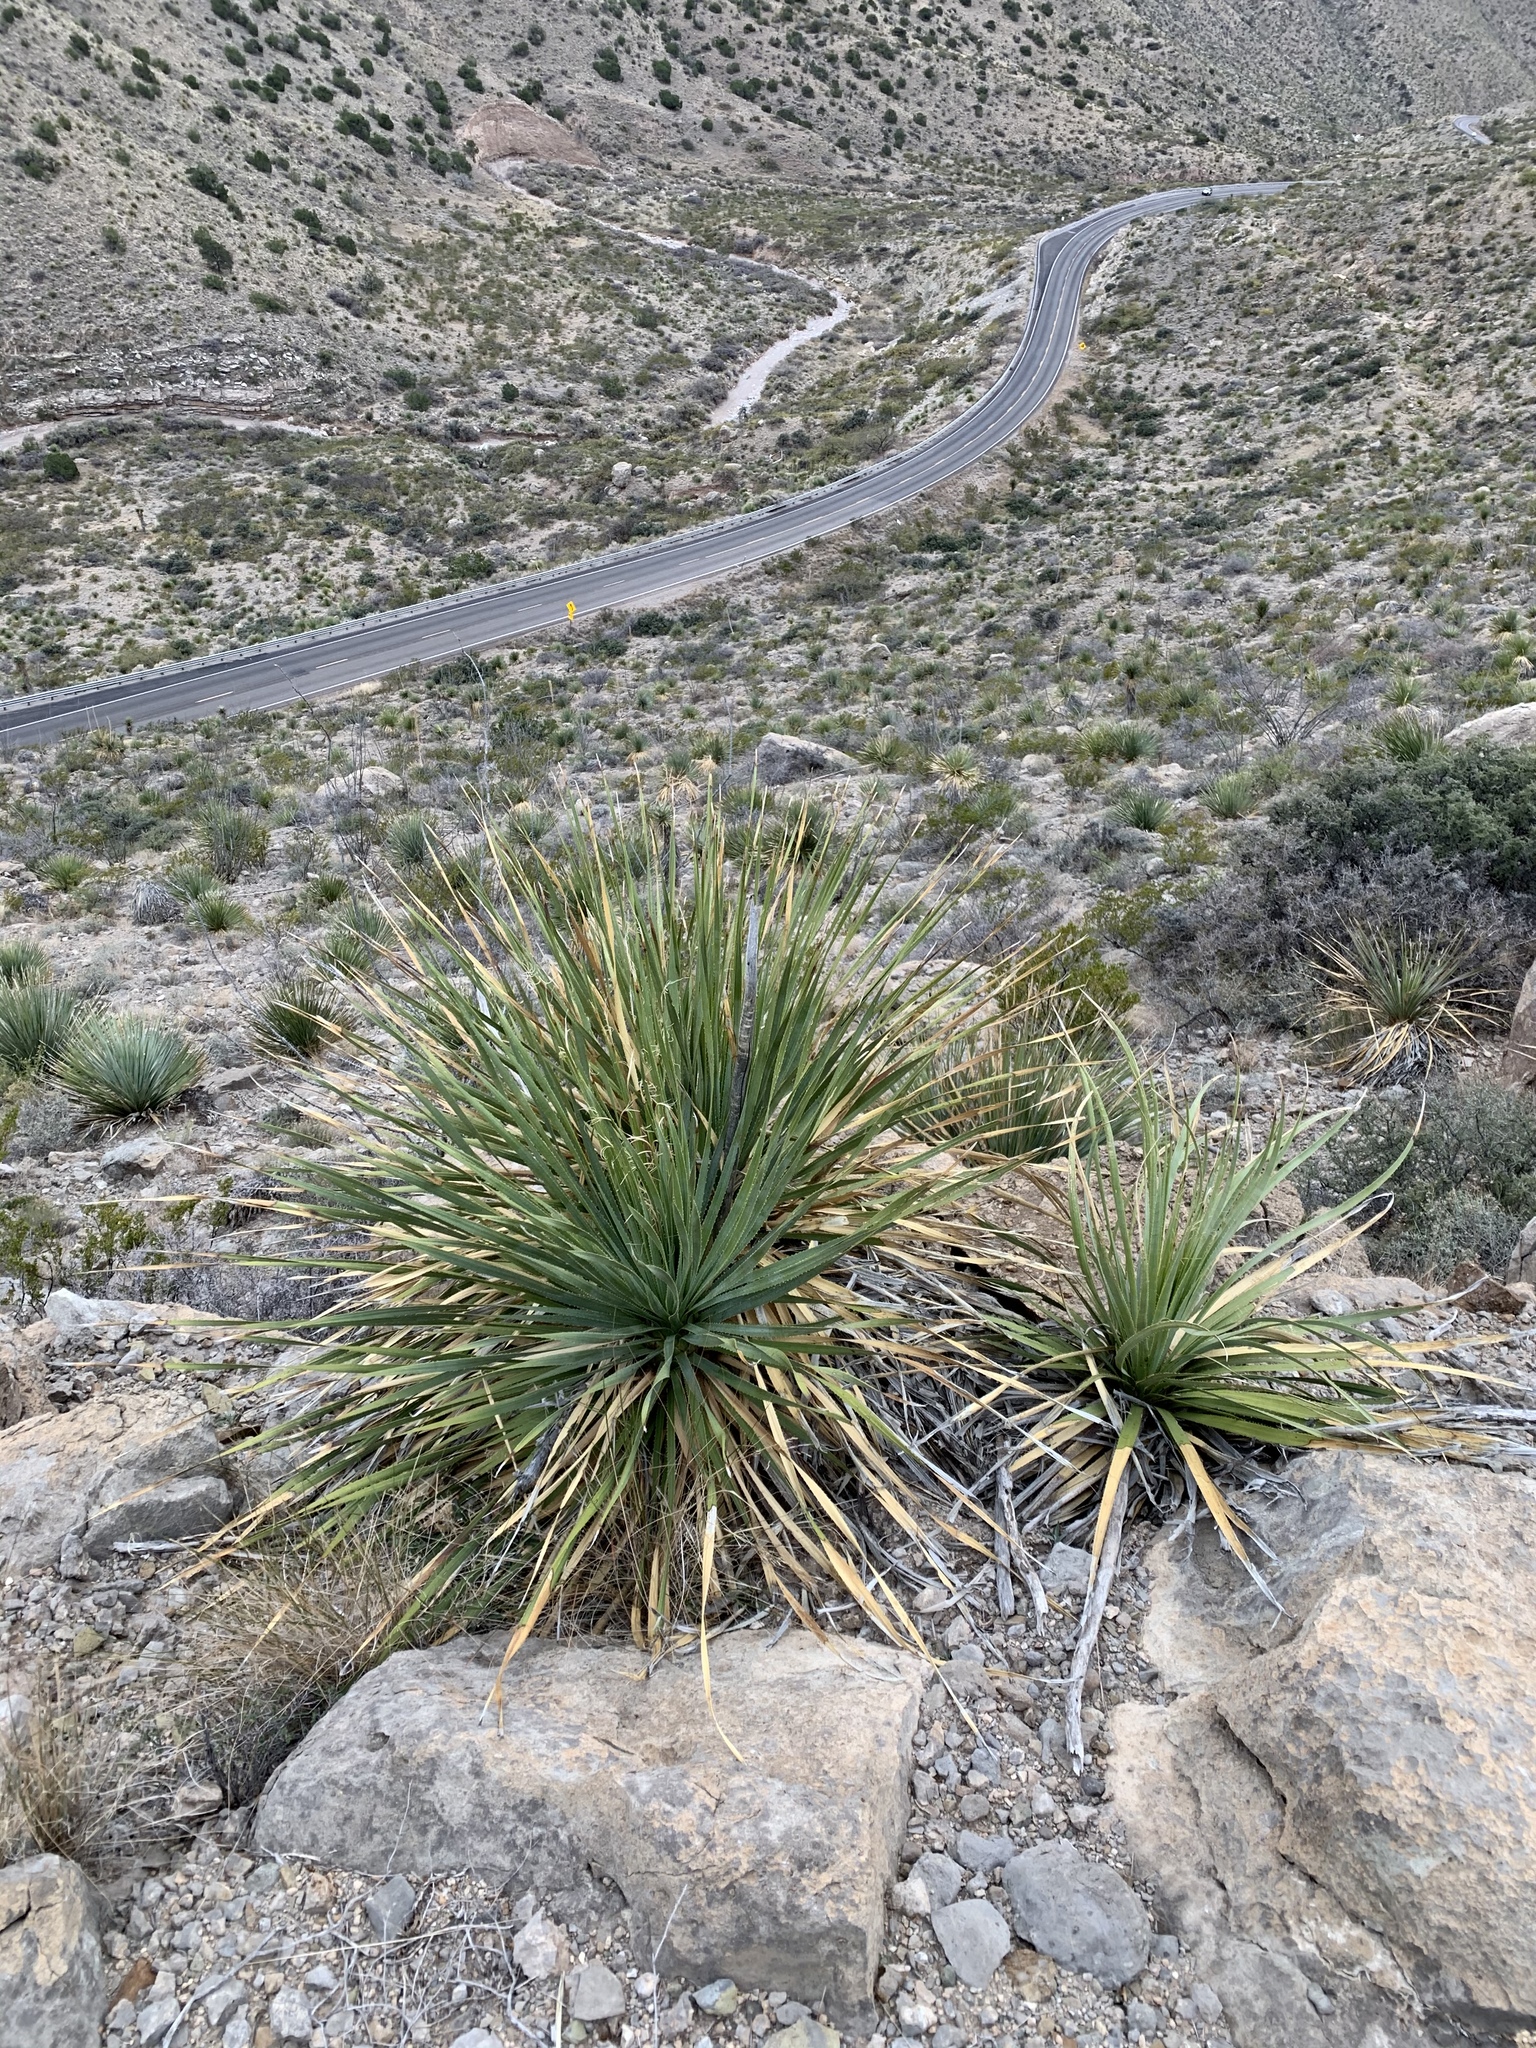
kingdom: Plantae
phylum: Tracheophyta
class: Liliopsida
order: Asparagales
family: Asparagaceae
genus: Dasylirion
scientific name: Dasylirion wheeleri
